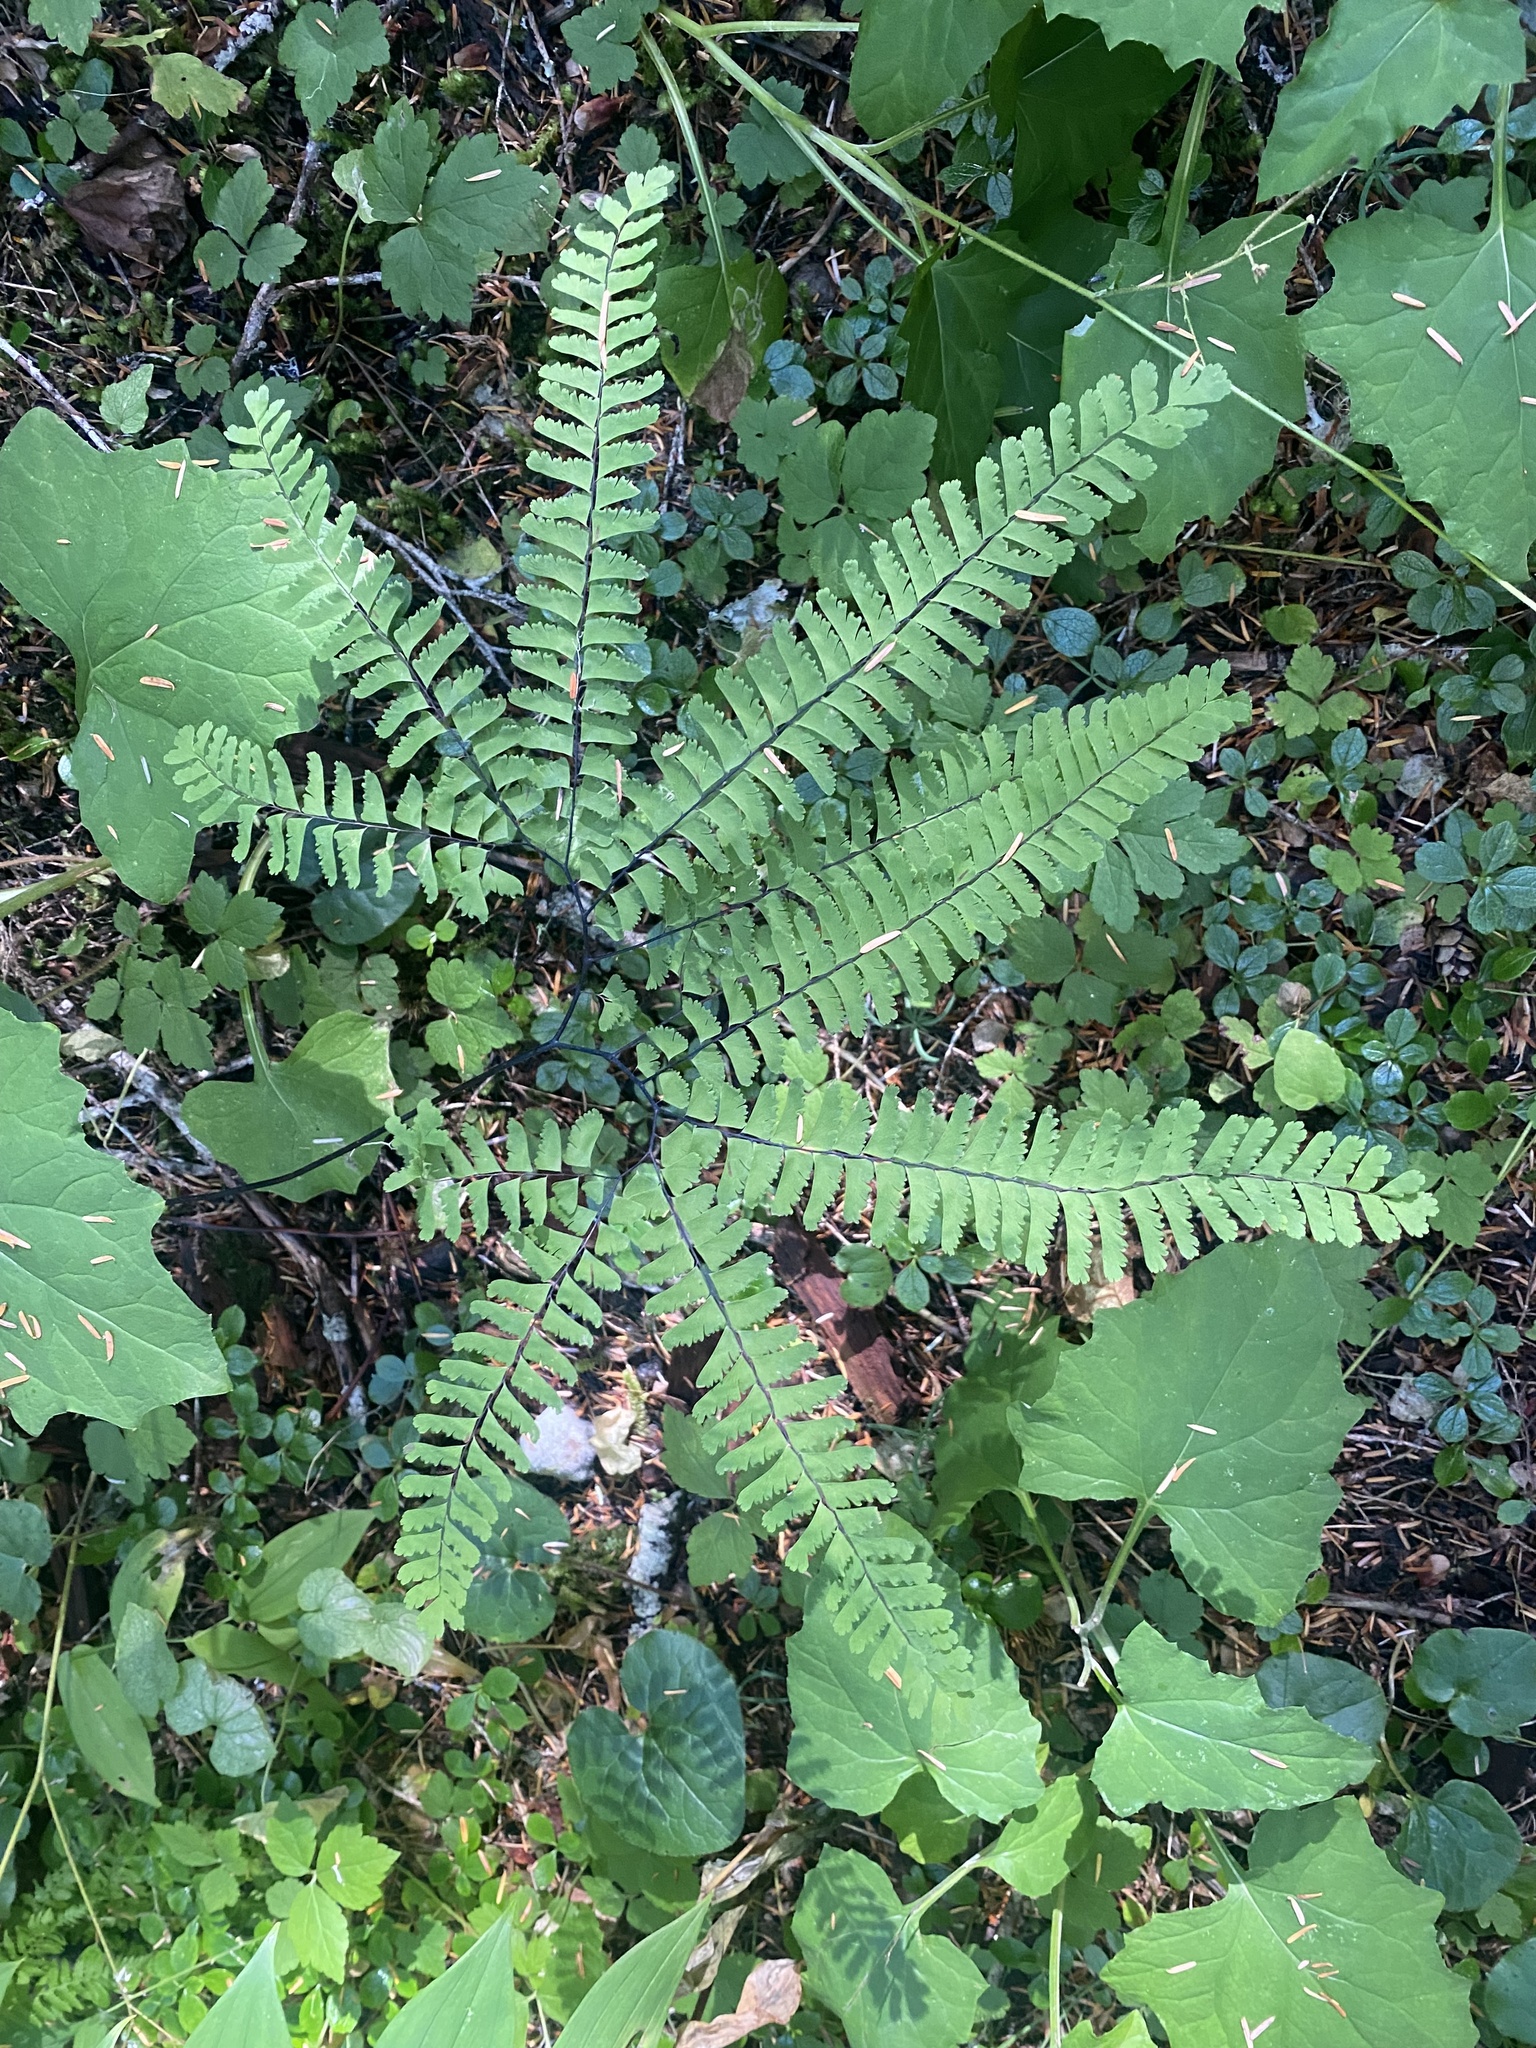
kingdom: Plantae
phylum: Tracheophyta
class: Polypodiopsida
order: Polypodiales
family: Pteridaceae
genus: Adiantum
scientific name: Adiantum aleuticum
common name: Aleutian maidenhair fern
